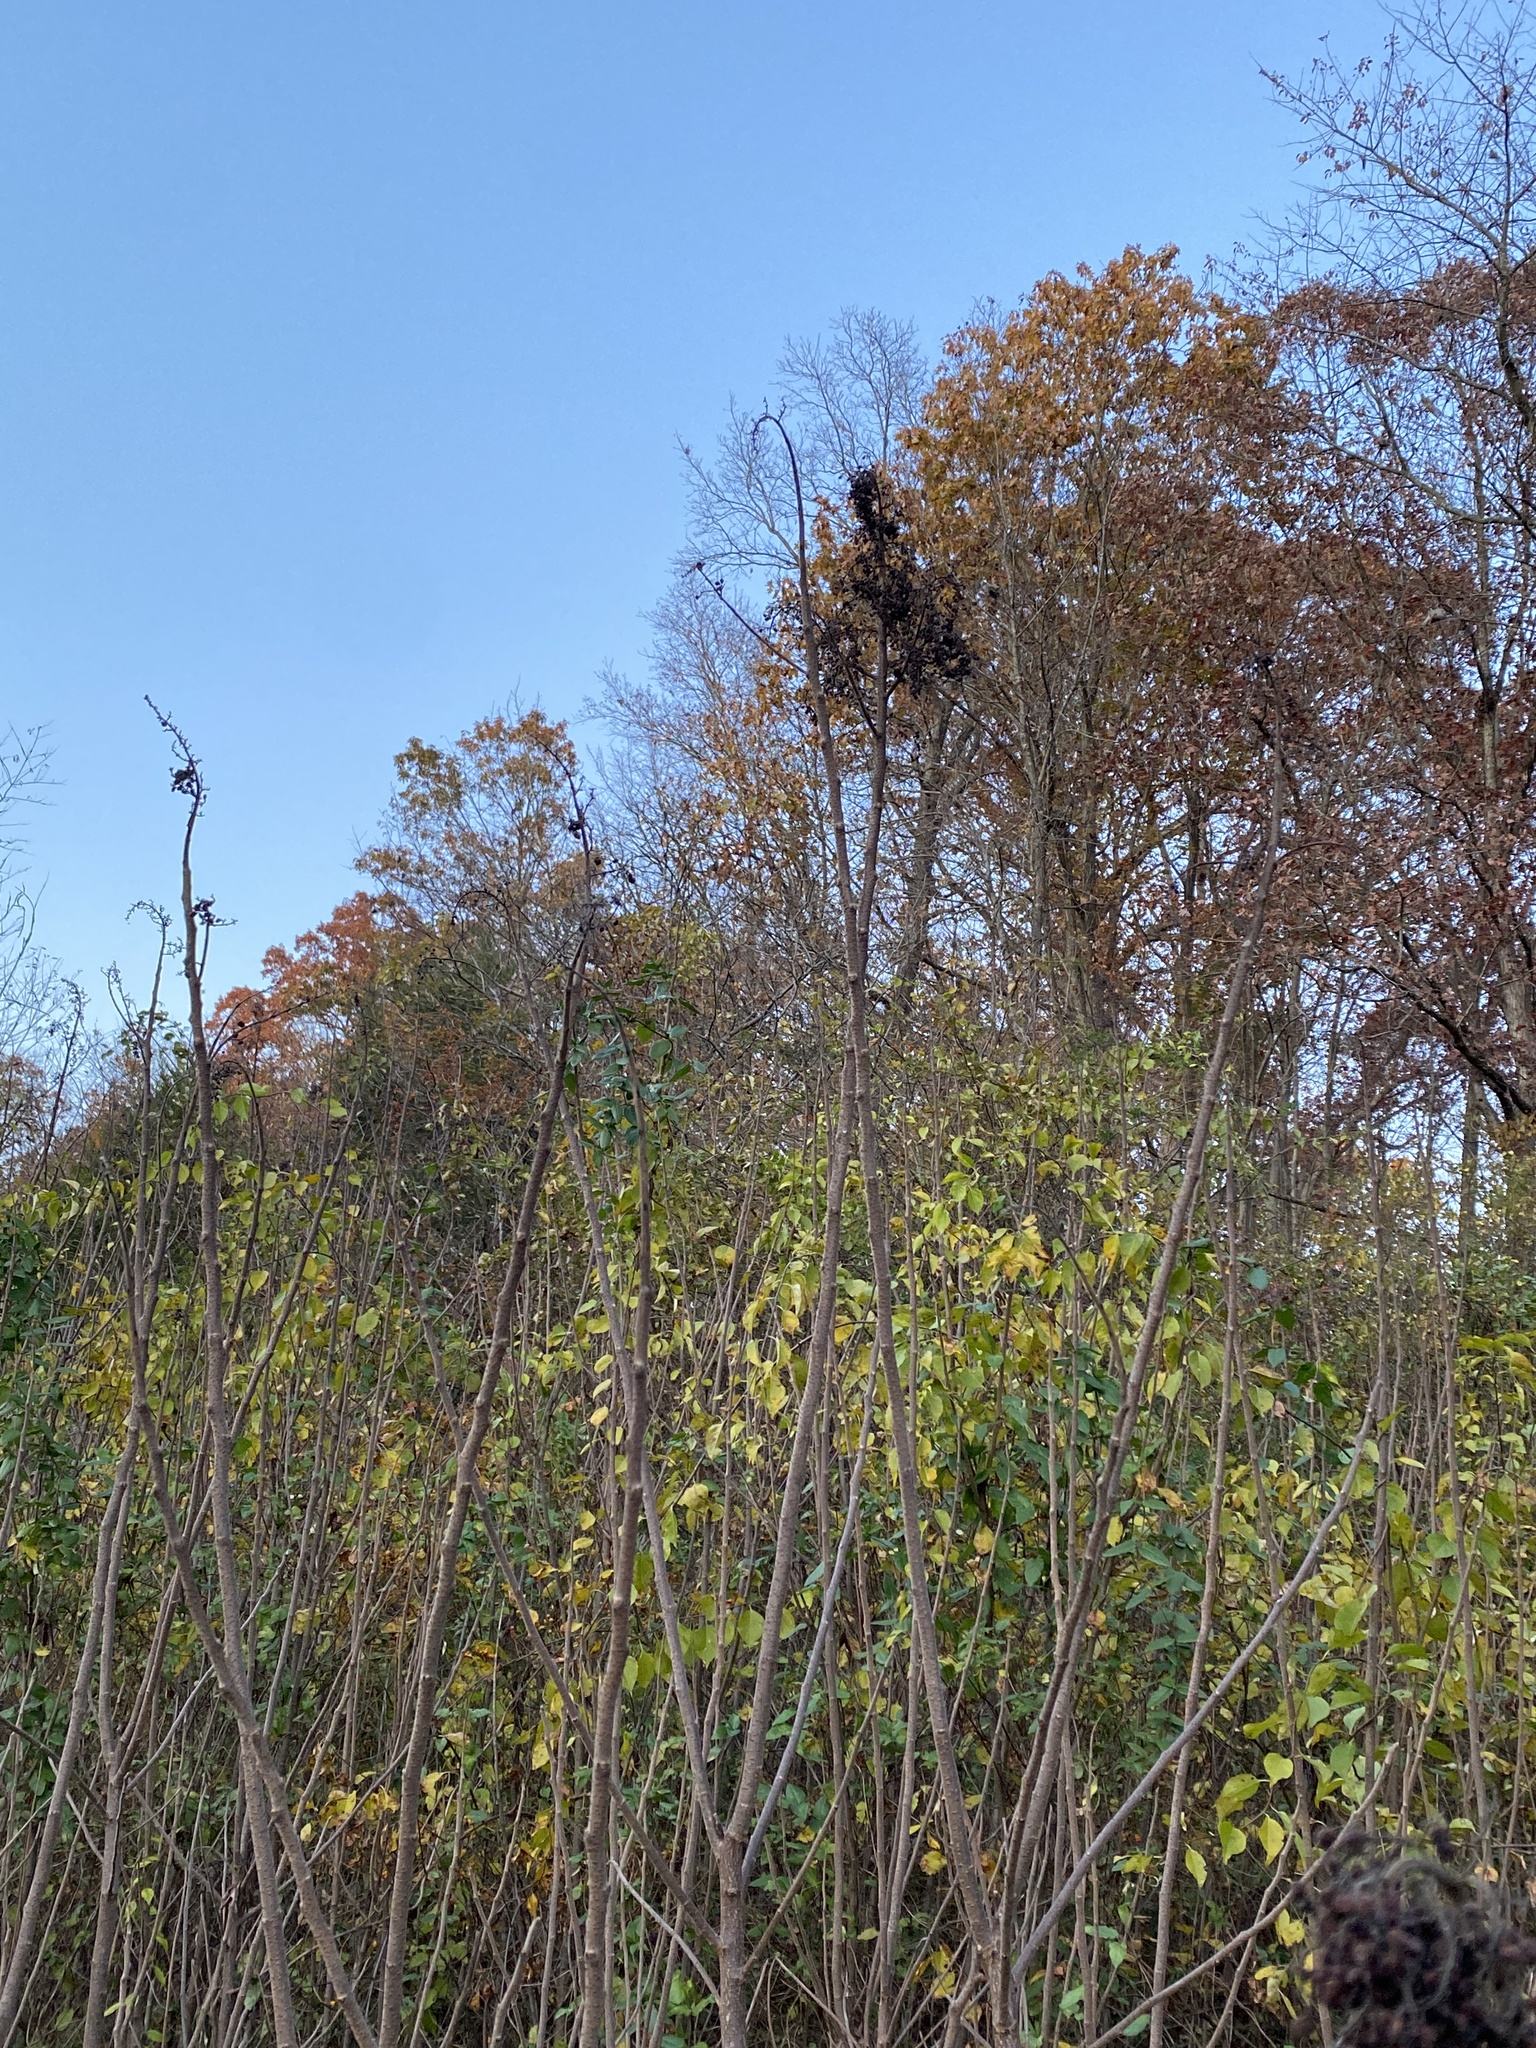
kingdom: Plantae
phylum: Tracheophyta
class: Magnoliopsida
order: Sapindales
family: Anacardiaceae
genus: Rhus
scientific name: Rhus copallina
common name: Shining sumac
